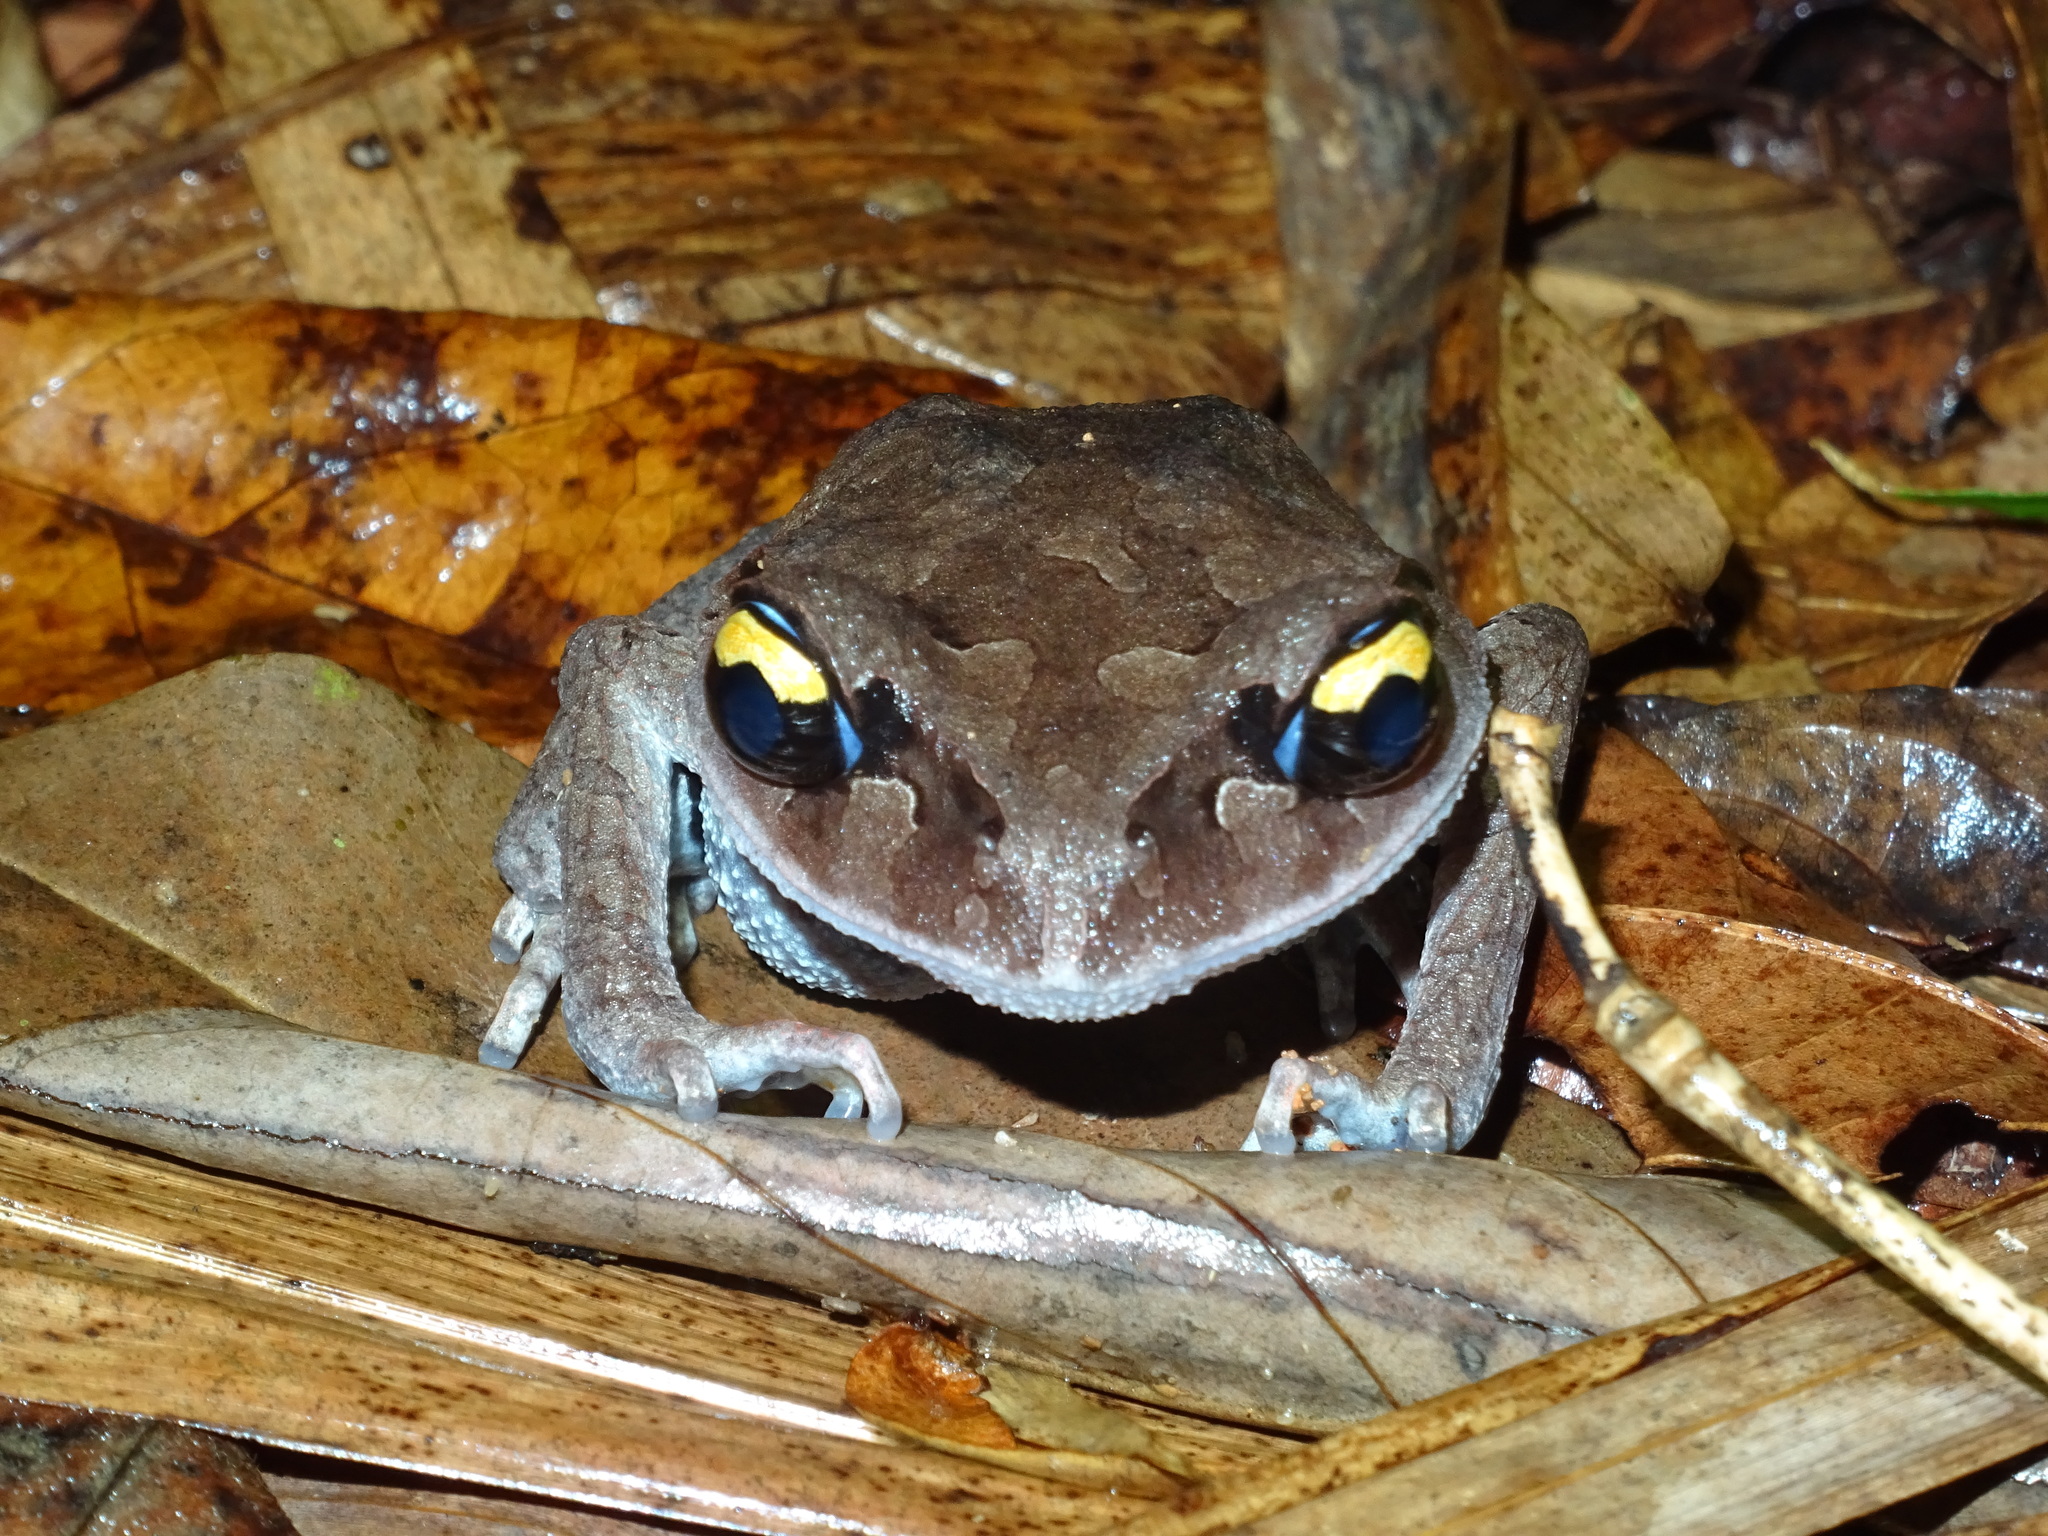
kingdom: Animalia
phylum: Chordata
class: Amphibia
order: Anura
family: Megophryidae
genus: Leptobrachium
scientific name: Leptobrachium smithi
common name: Smith's litter frog
